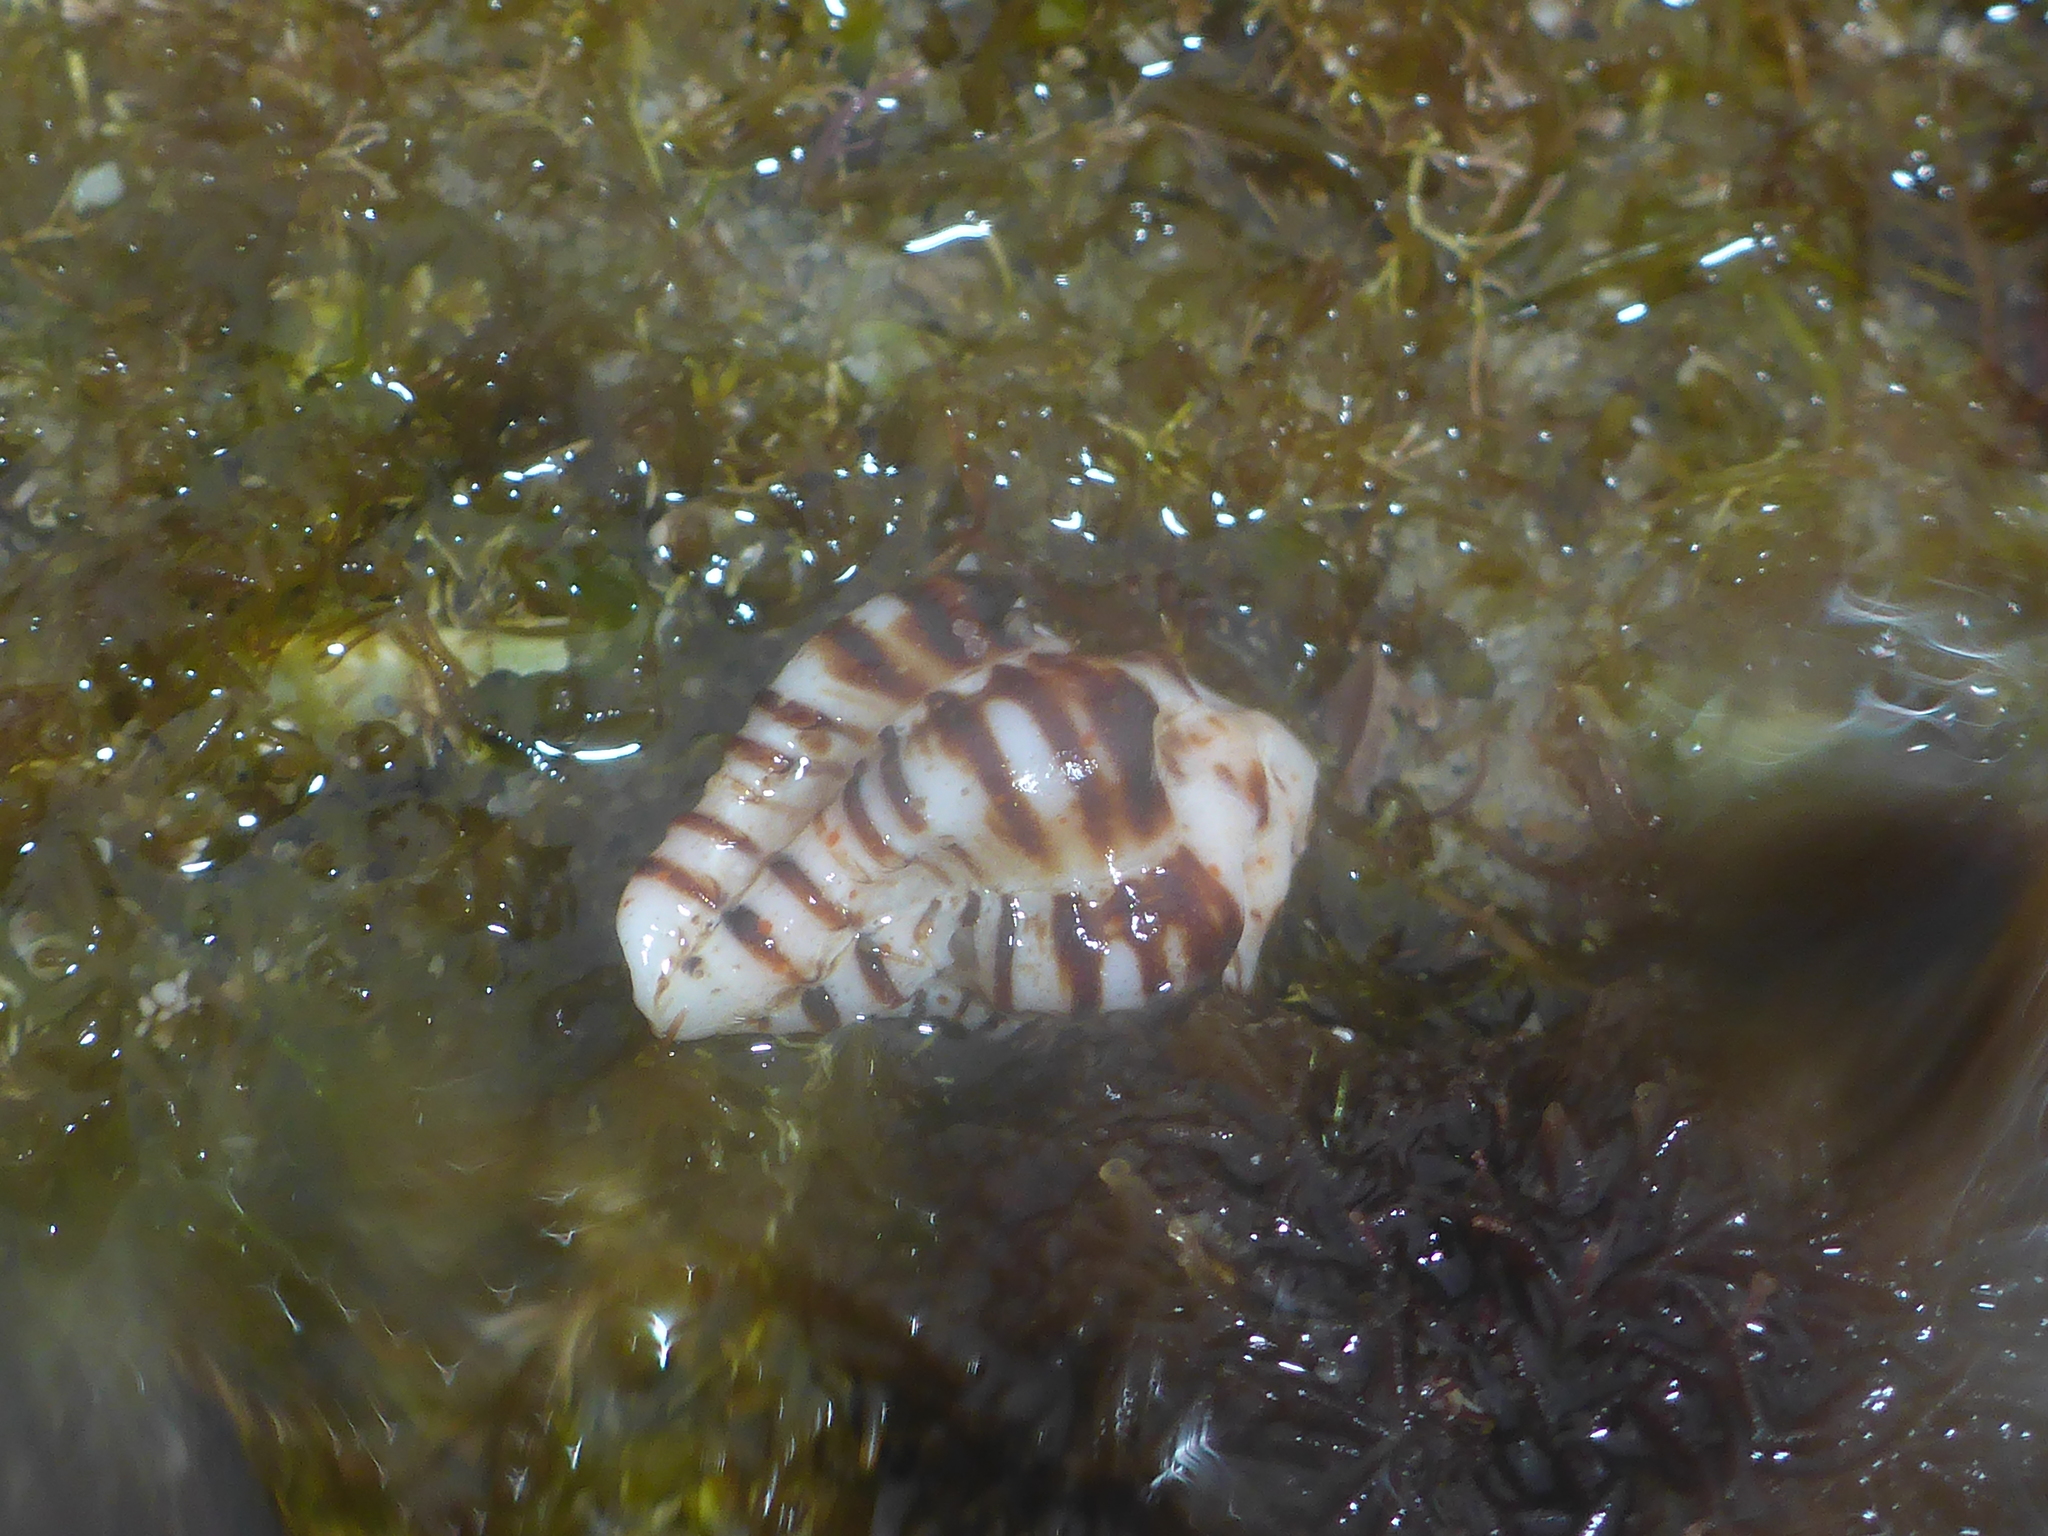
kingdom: Animalia
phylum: Mollusca
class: Gastropoda
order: Neogastropoda
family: Muricidae
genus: Maxwellia
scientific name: Maxwellia gemma
